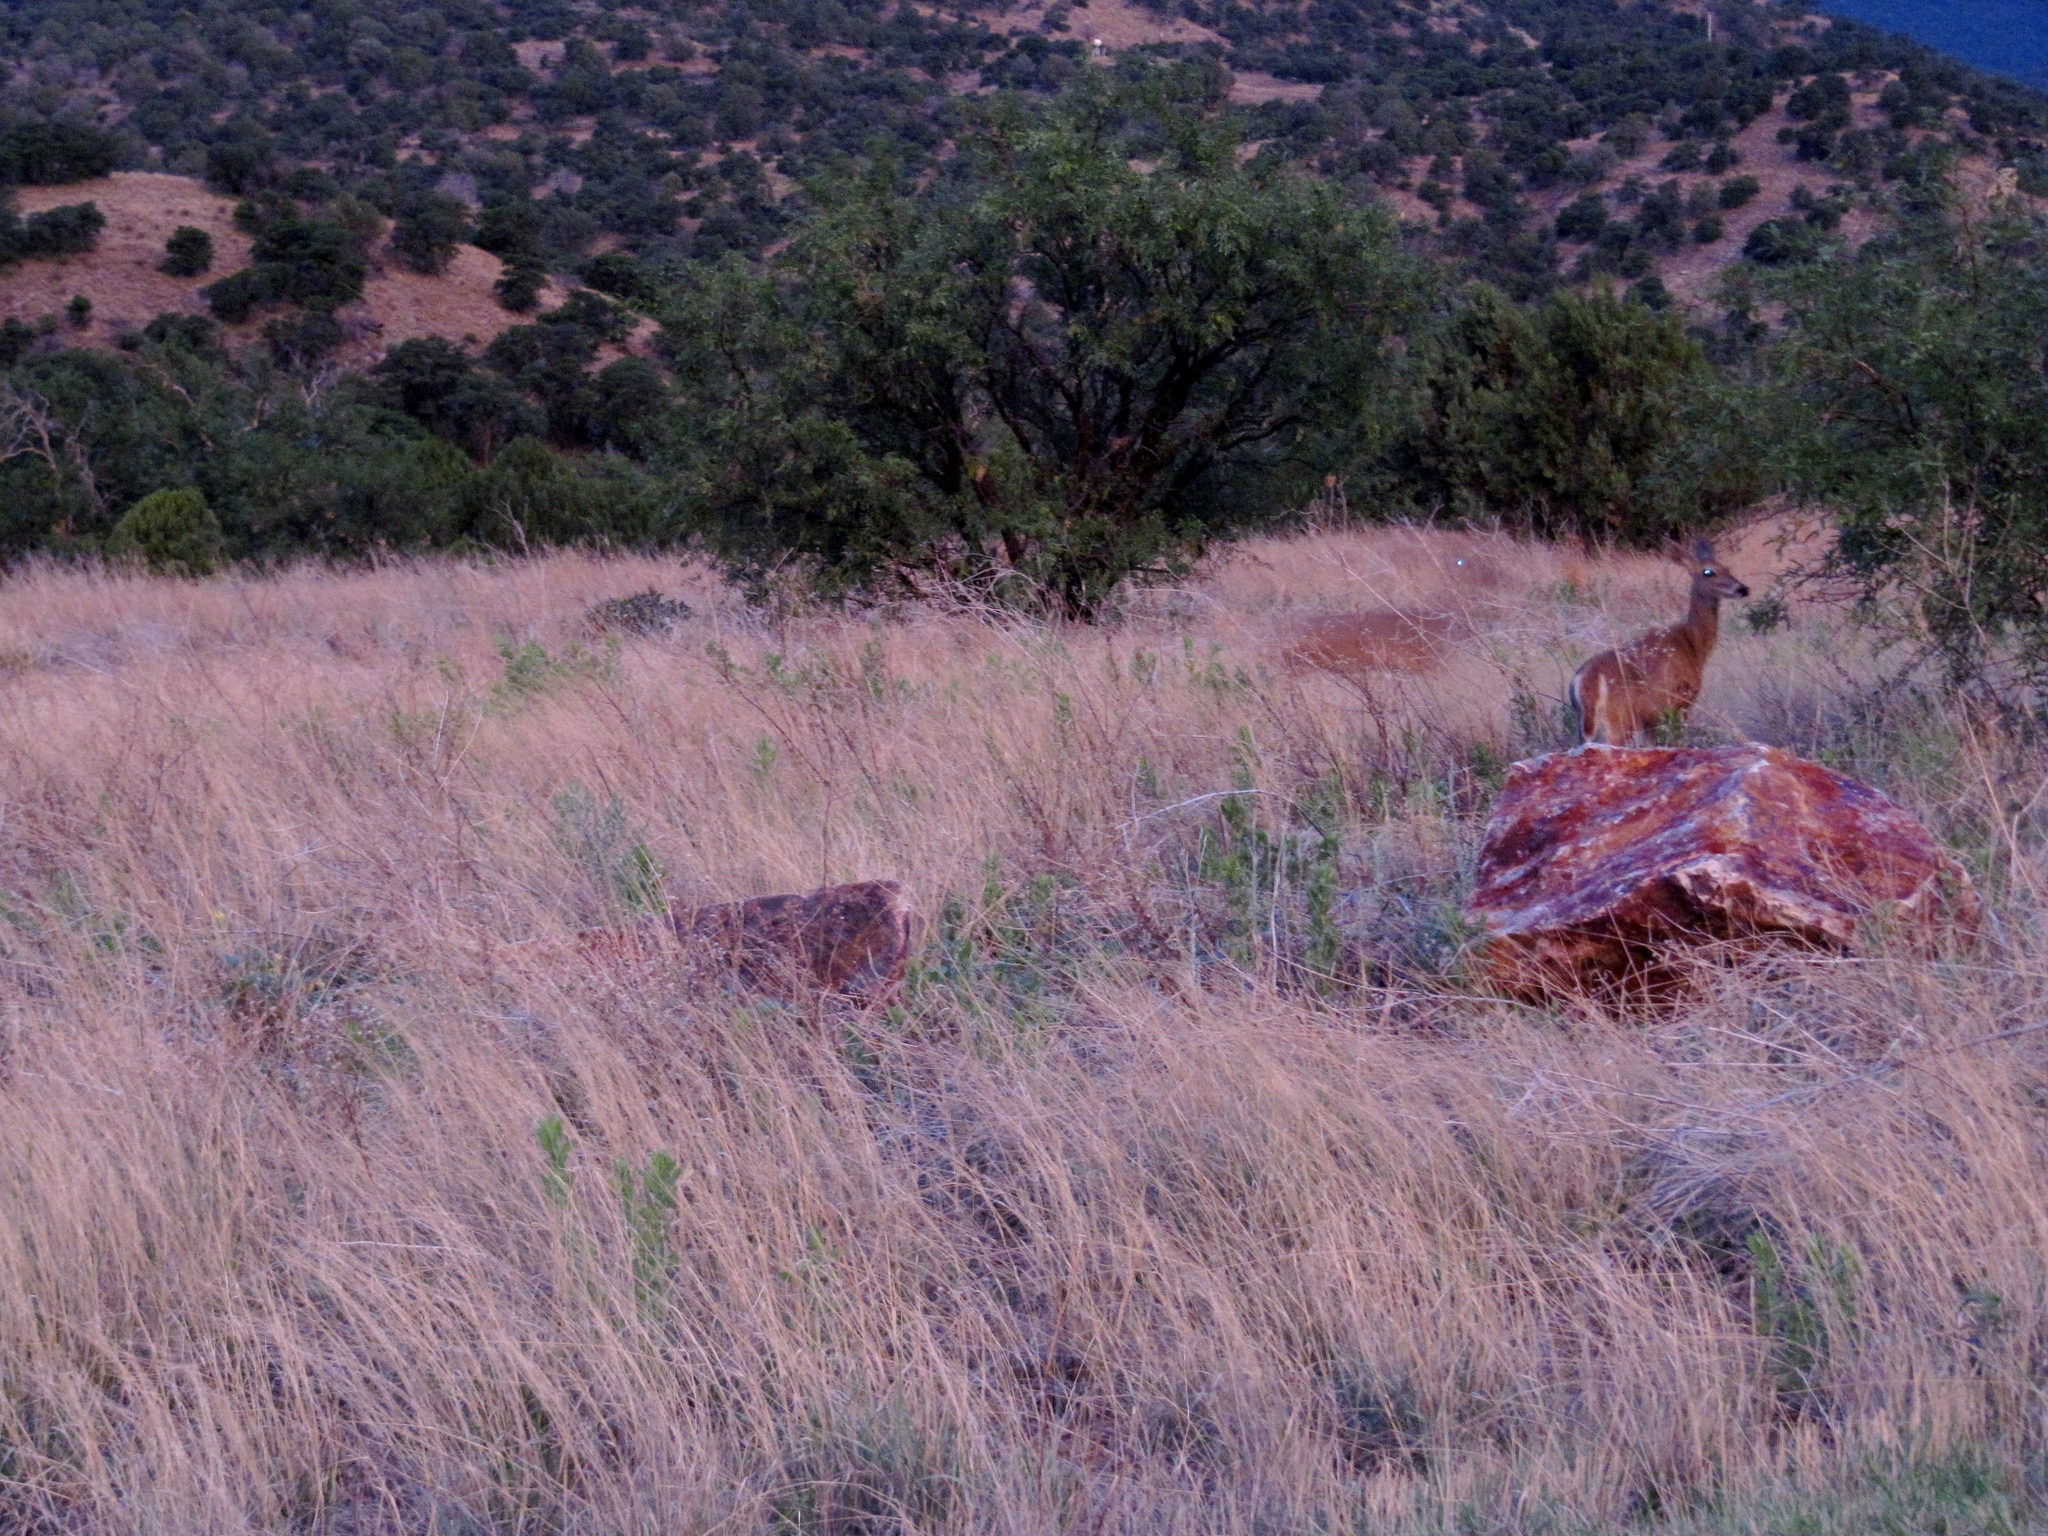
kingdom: Animalia
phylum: Chordata
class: Mammalia
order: Artiodactyla
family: Cervidae
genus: Odocoileus
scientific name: Odocoileus virginianus
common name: White-tailed deer
